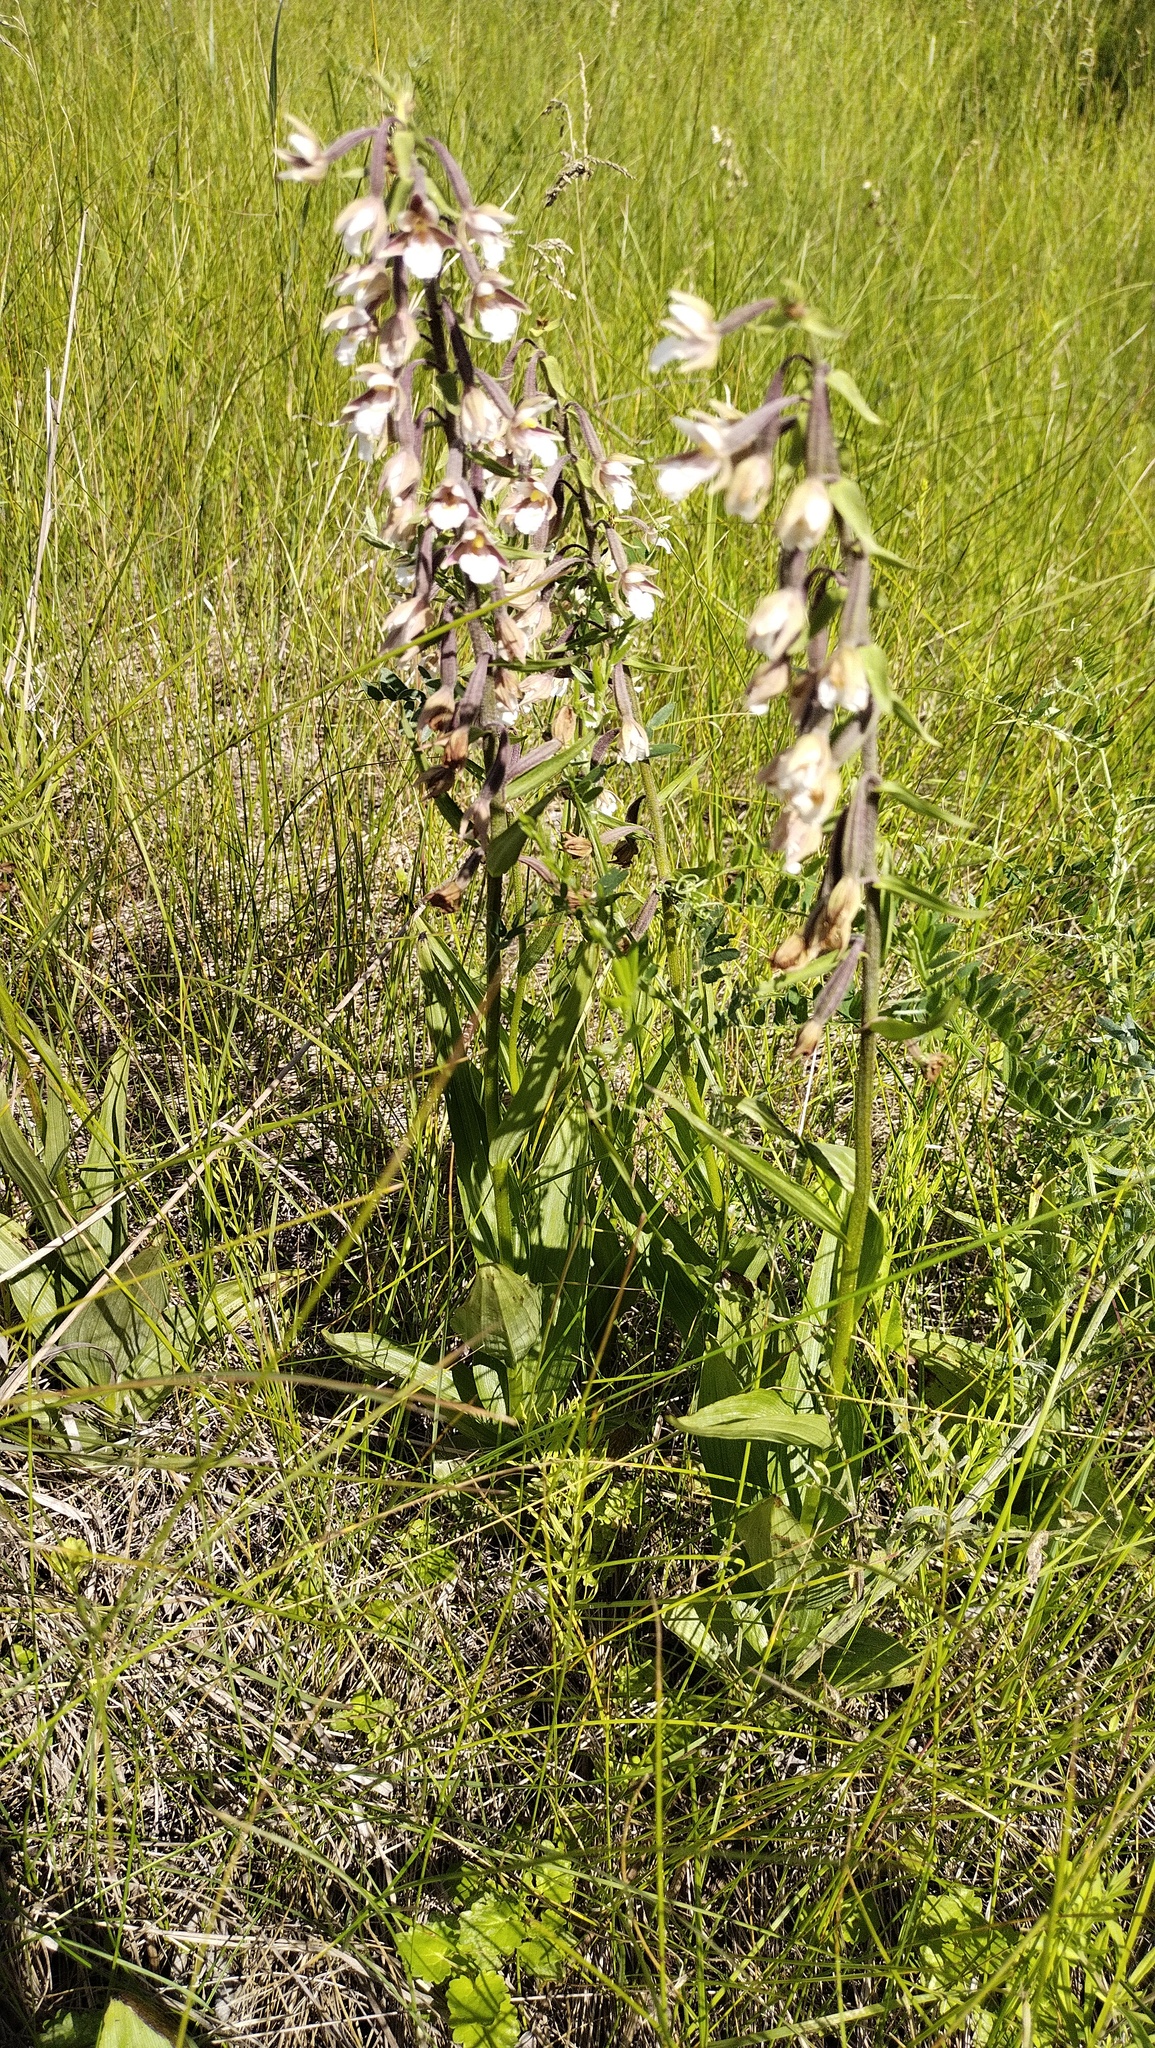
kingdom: Plantae
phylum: Tracheophyta
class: Liliopsida
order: Asparagales
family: Orchidaceae
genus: Epipactis
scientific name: Epipactis palustris
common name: Marsh helleborine
